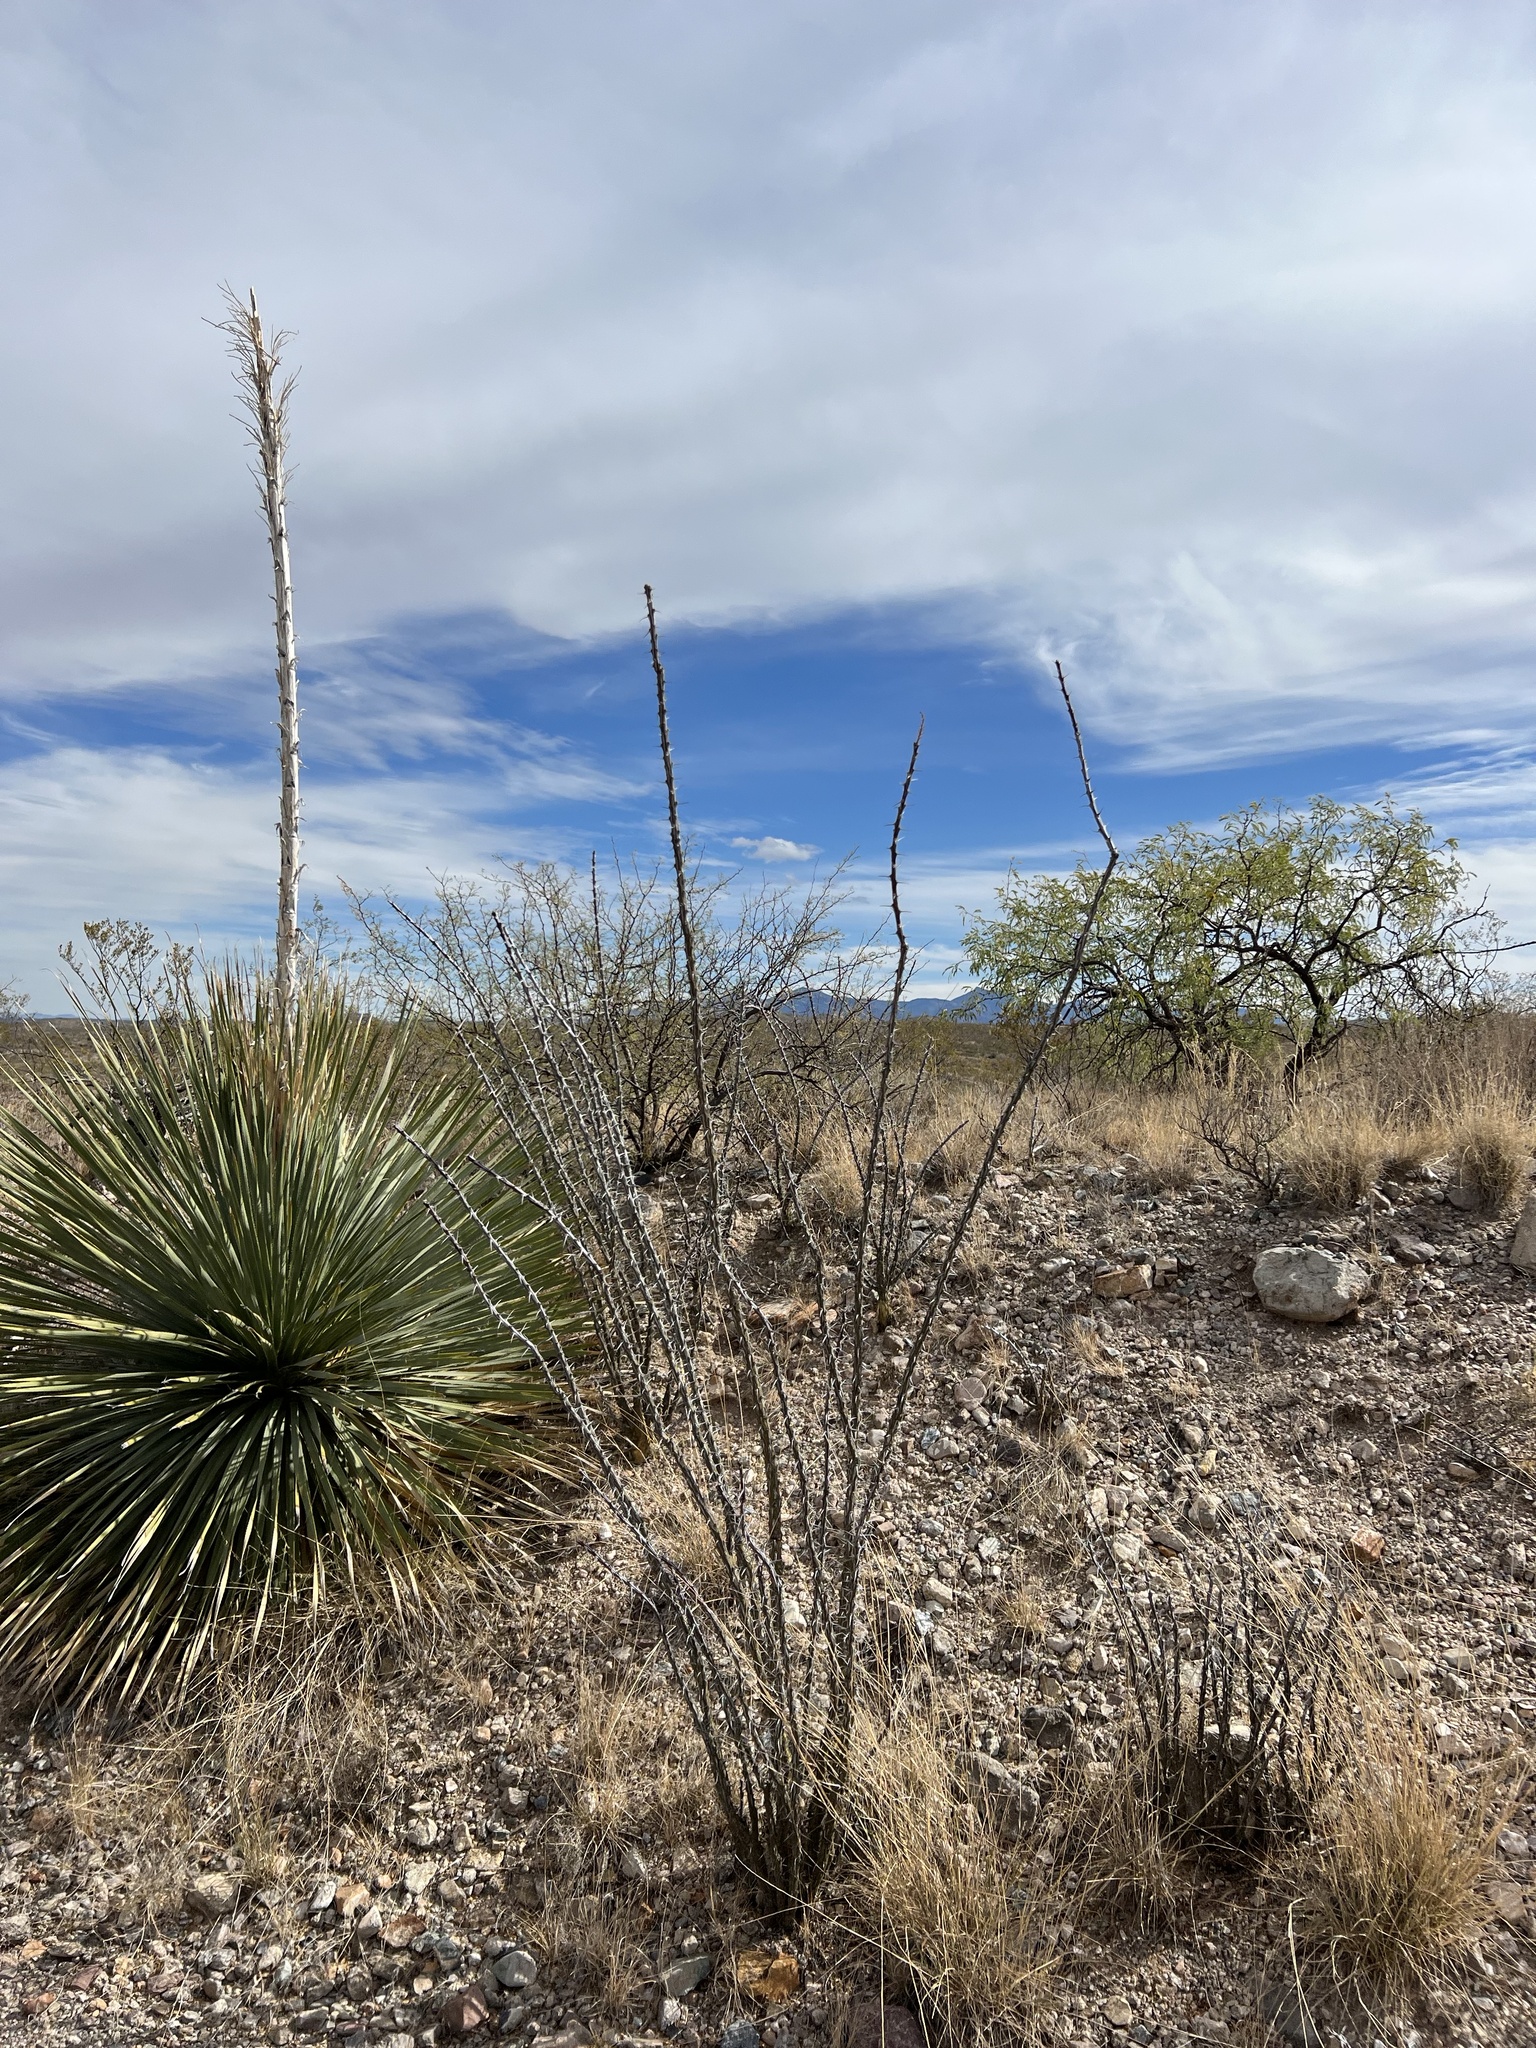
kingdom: Plantae
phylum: Tracheophyta
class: Magnoliopsida
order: Ericales
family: Fouquieriaceae
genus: Fouquieria
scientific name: Fouquieria splendens
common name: Vine-cactus
